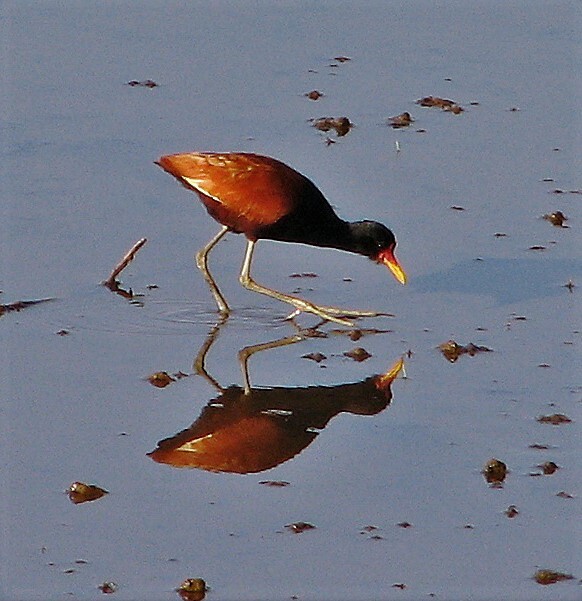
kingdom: Animalia
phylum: Chordata
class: Aves
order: Charadriiformes
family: Jacanidae
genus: Jacana
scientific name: Jacana jacana
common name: Wattled jacana
